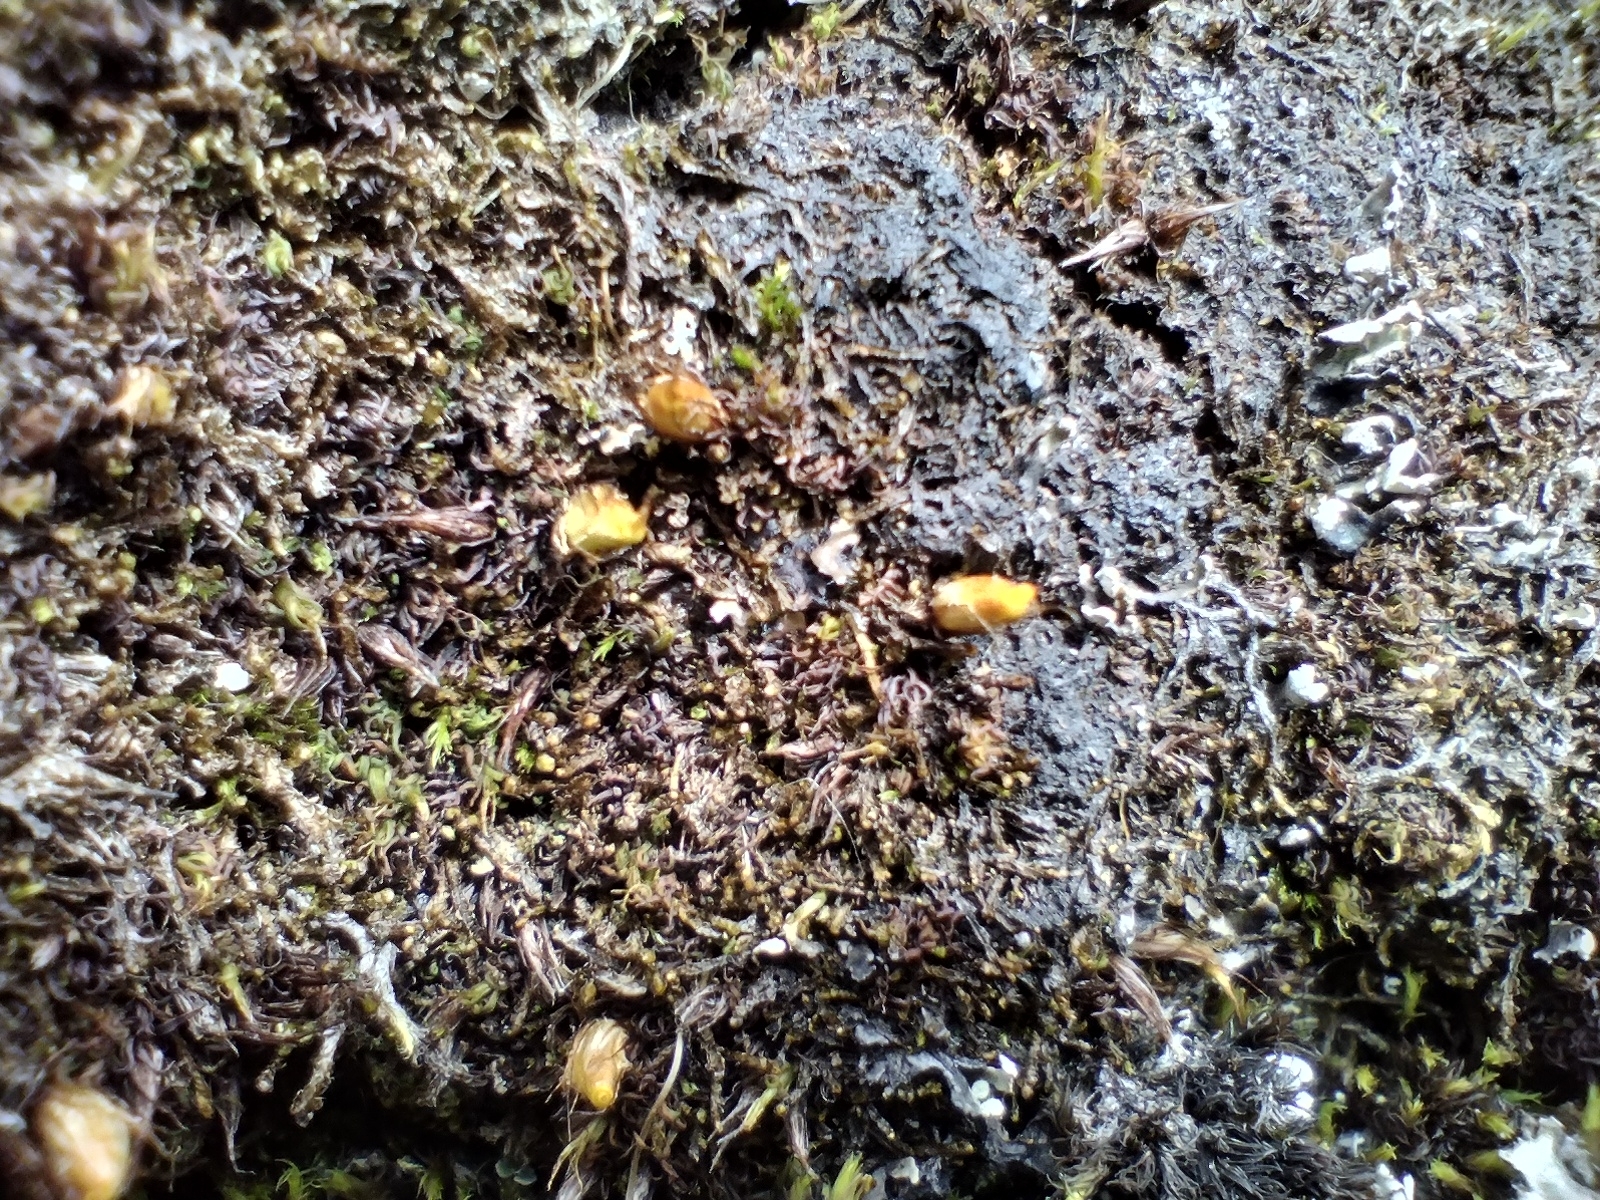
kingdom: Plantae
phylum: Bryophyta
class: Bryopsida
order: Diphysciales
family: Diphysciaceae
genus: Diphyscium
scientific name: Diphyscium foliosum
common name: Nut moss
